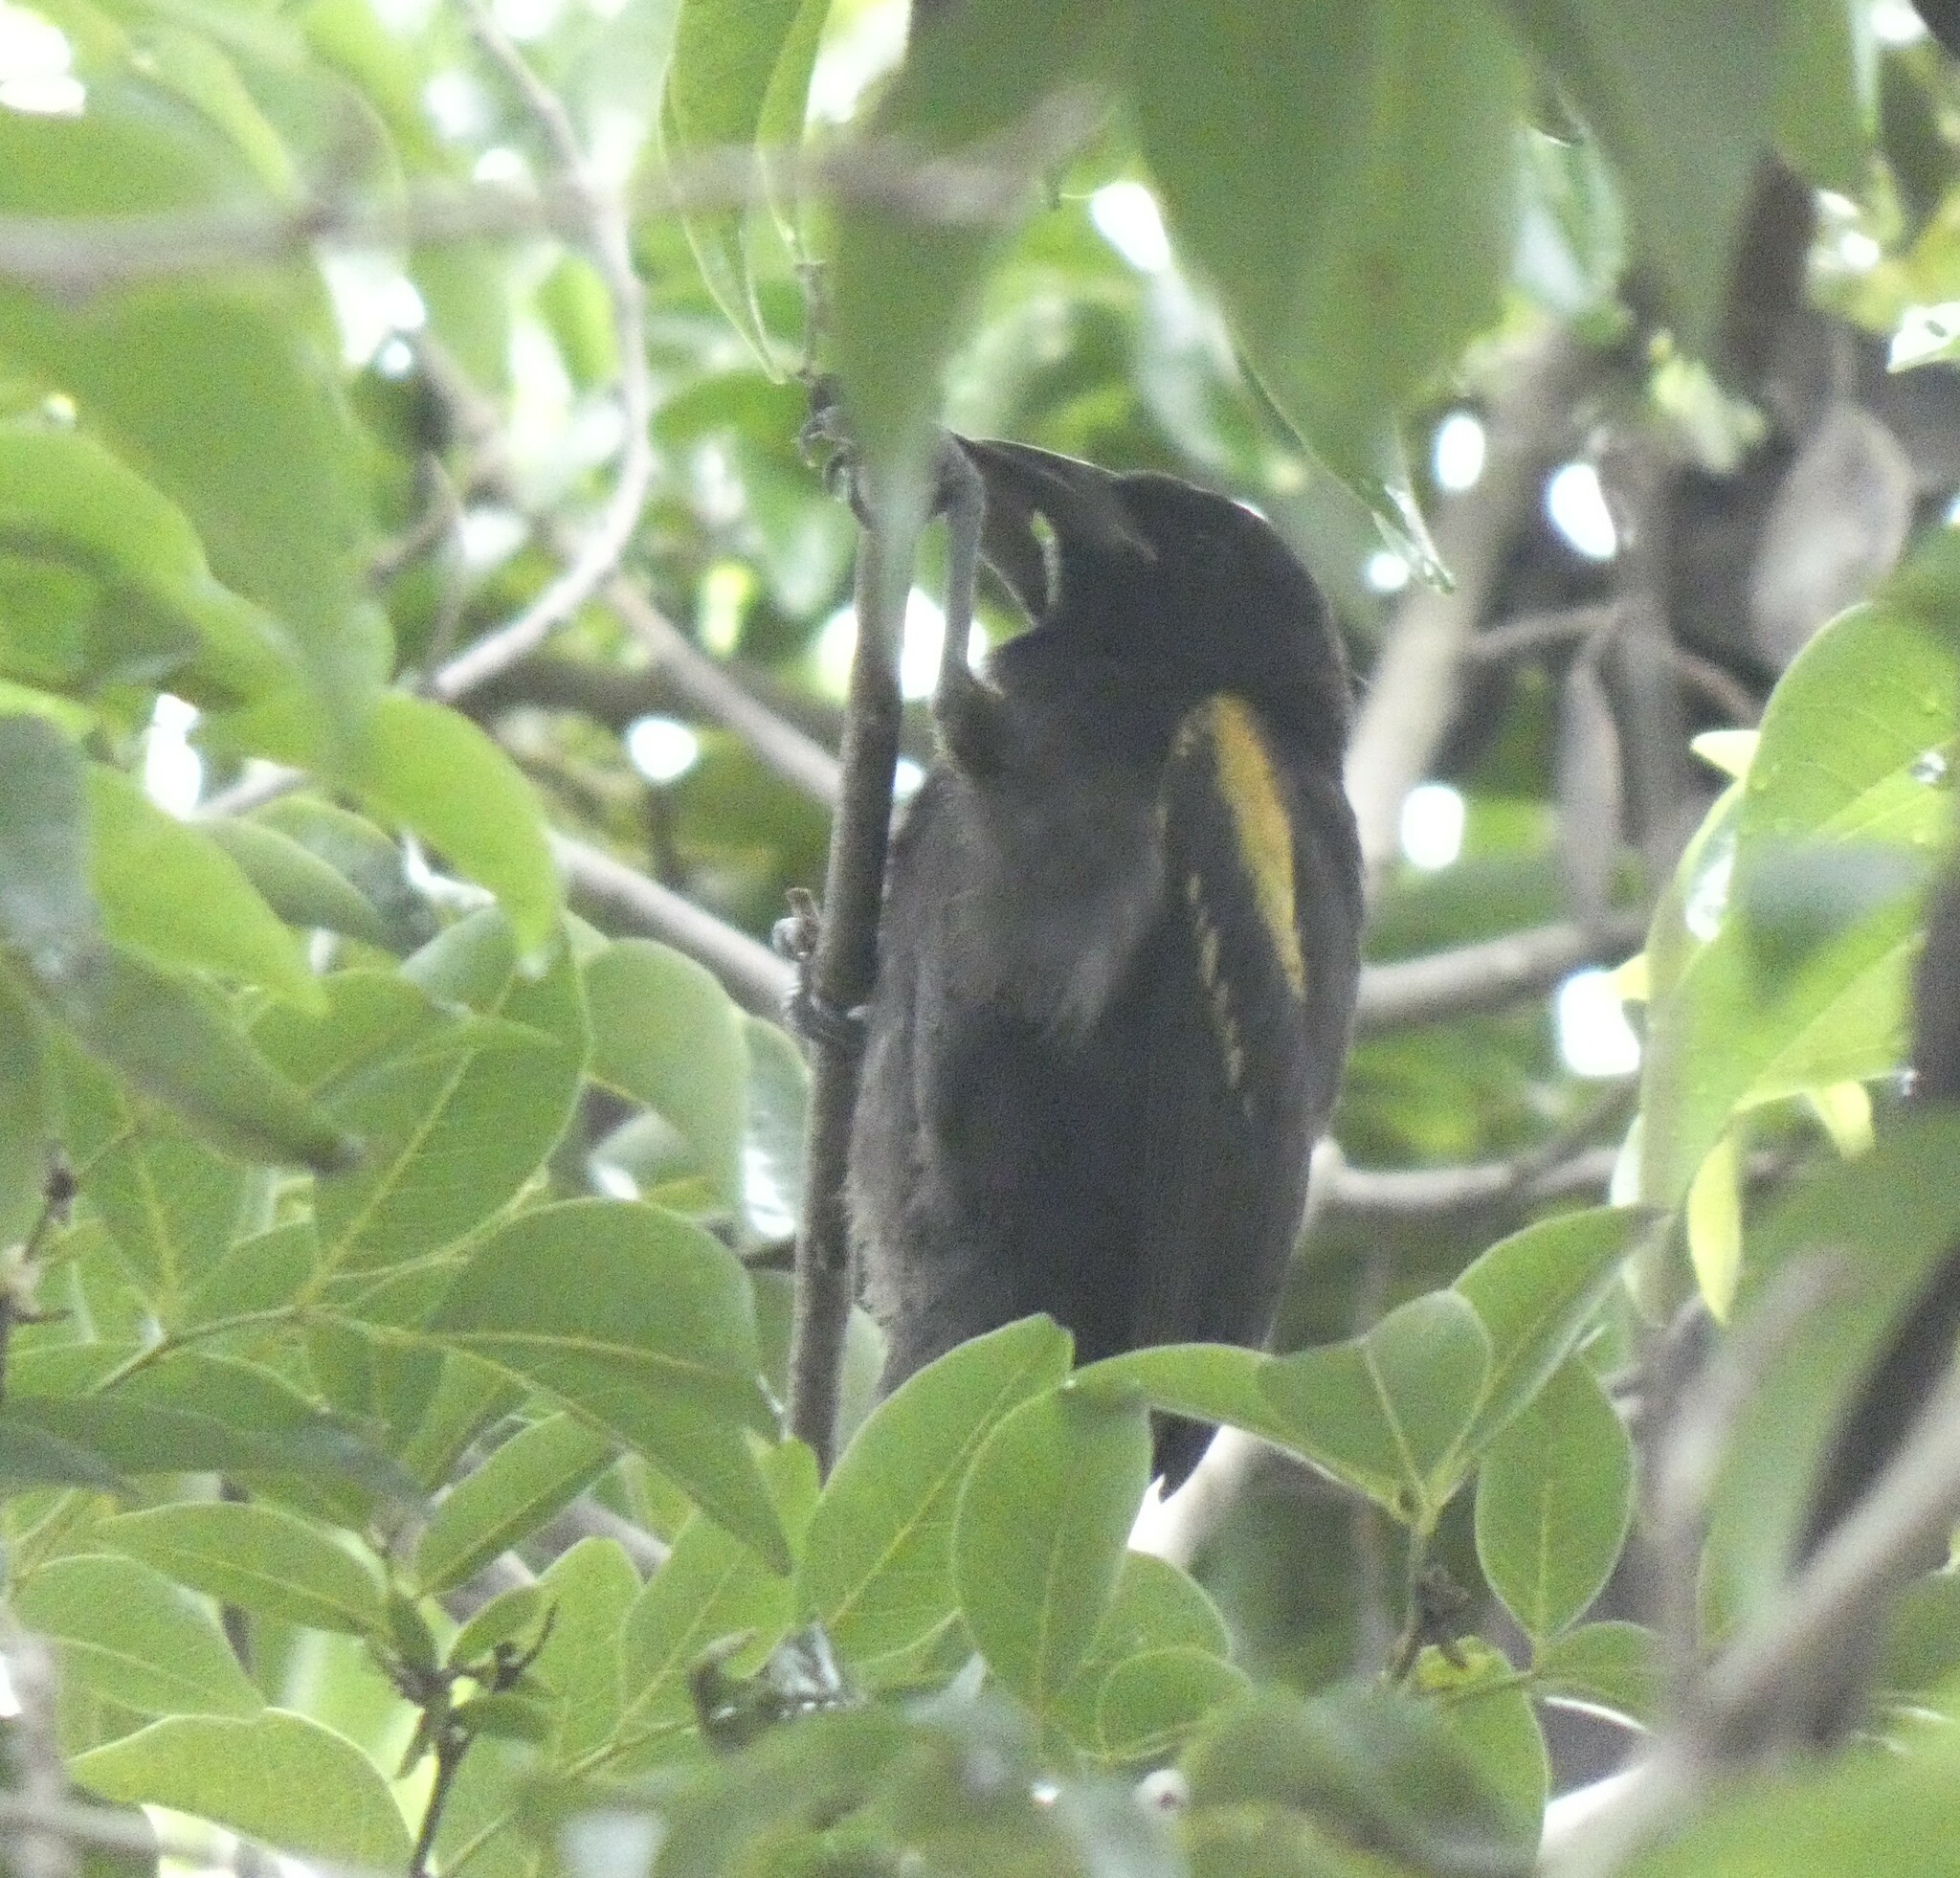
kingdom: Animalia
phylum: Chordata
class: Aves
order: Passeriformes
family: Icteridae
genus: Icterus
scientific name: Icterus cayanensis
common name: Epaulet oriole
